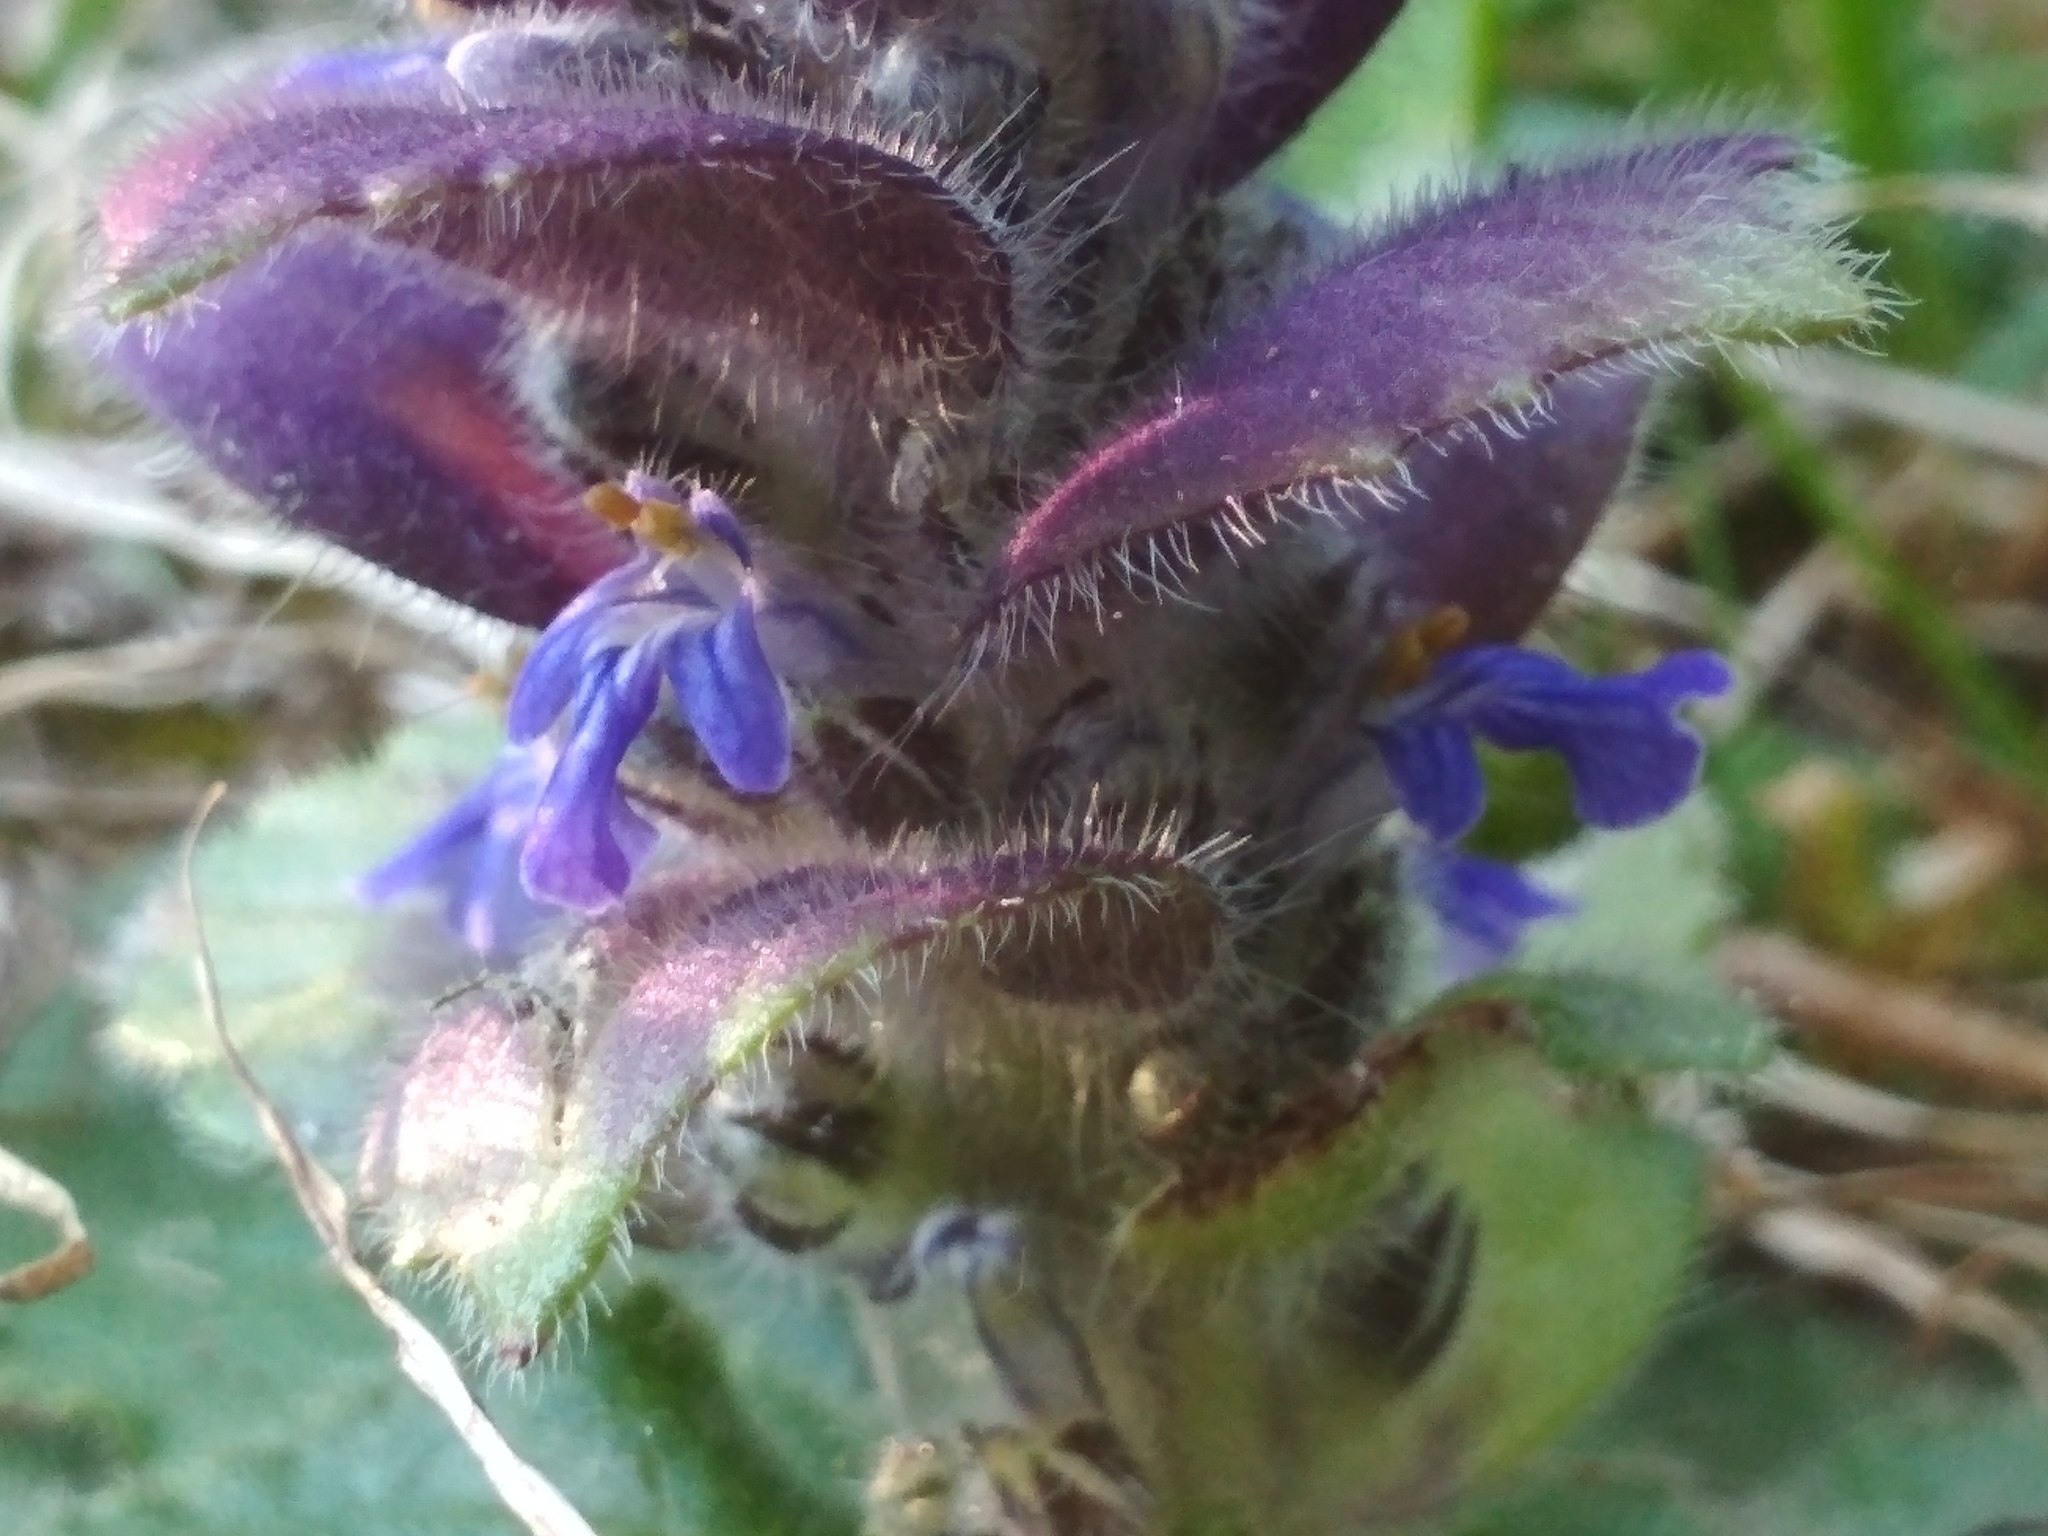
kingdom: Plantae
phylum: Tracheophyta
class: Magnoliopsida
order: Lamiales
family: Lamiaceae
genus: Ajuga
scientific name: Ajuga pyramidalis
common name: Pyramid bugle
